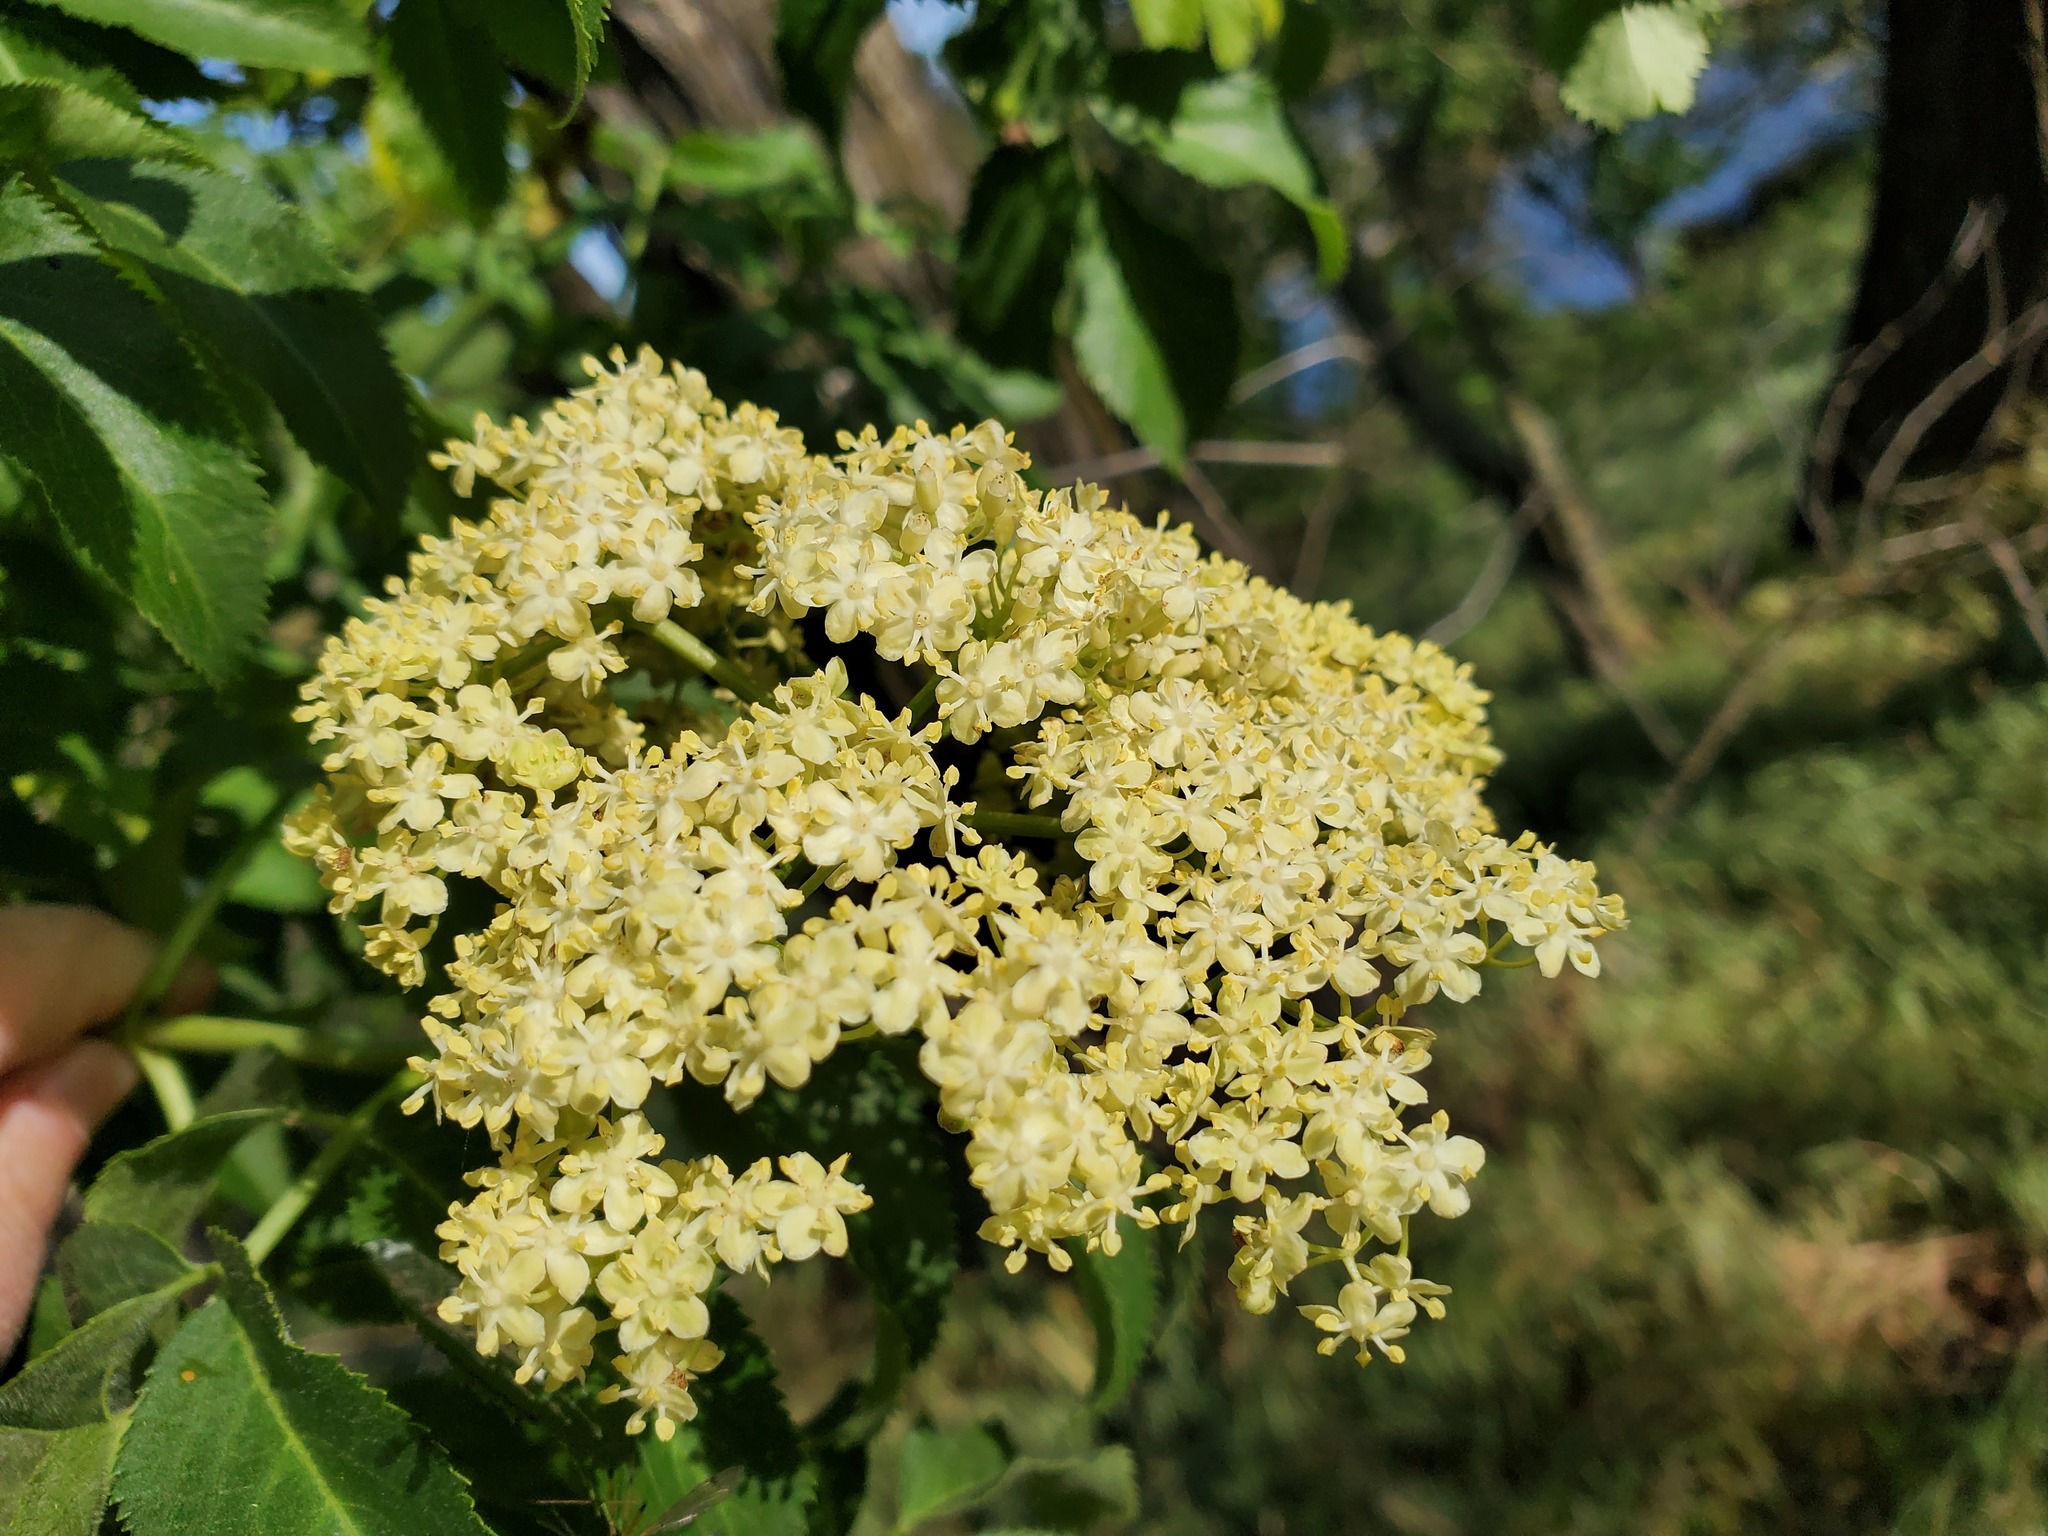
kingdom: Plantae
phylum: Tracheophyta
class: Magnoliopsida
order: Dipsacales
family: Viburnaceae
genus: Sambucus
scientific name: Sambucus cerulea
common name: Blue elder
